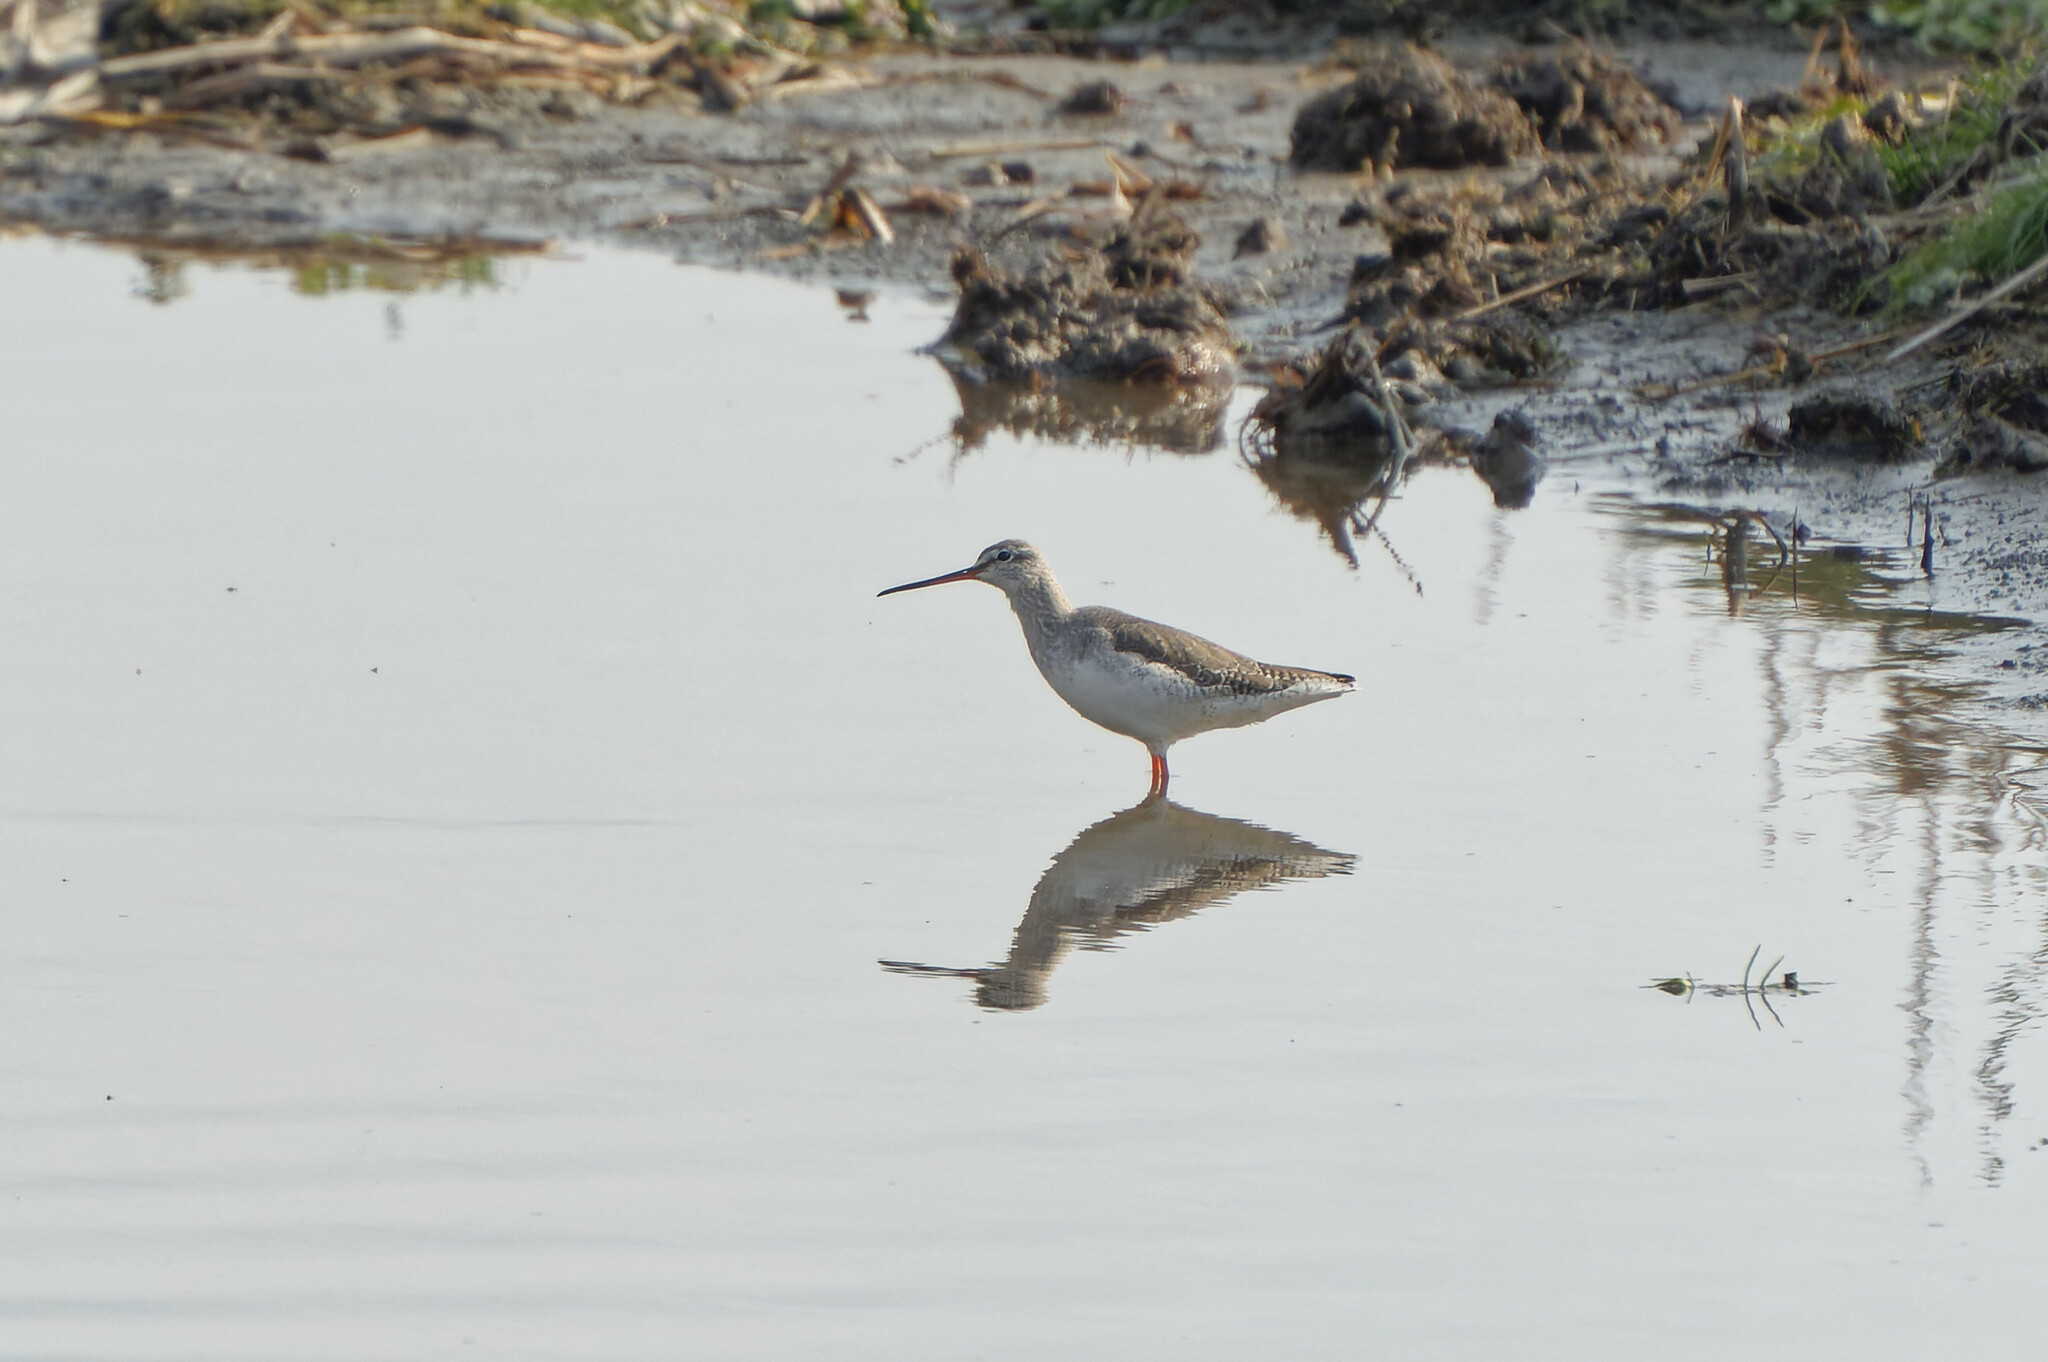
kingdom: Animalia
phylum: Chordata
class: Aves
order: Charadriiformes
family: Scolopacidae
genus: Tringa
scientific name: Tringa erythropus
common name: Spotted redshank
